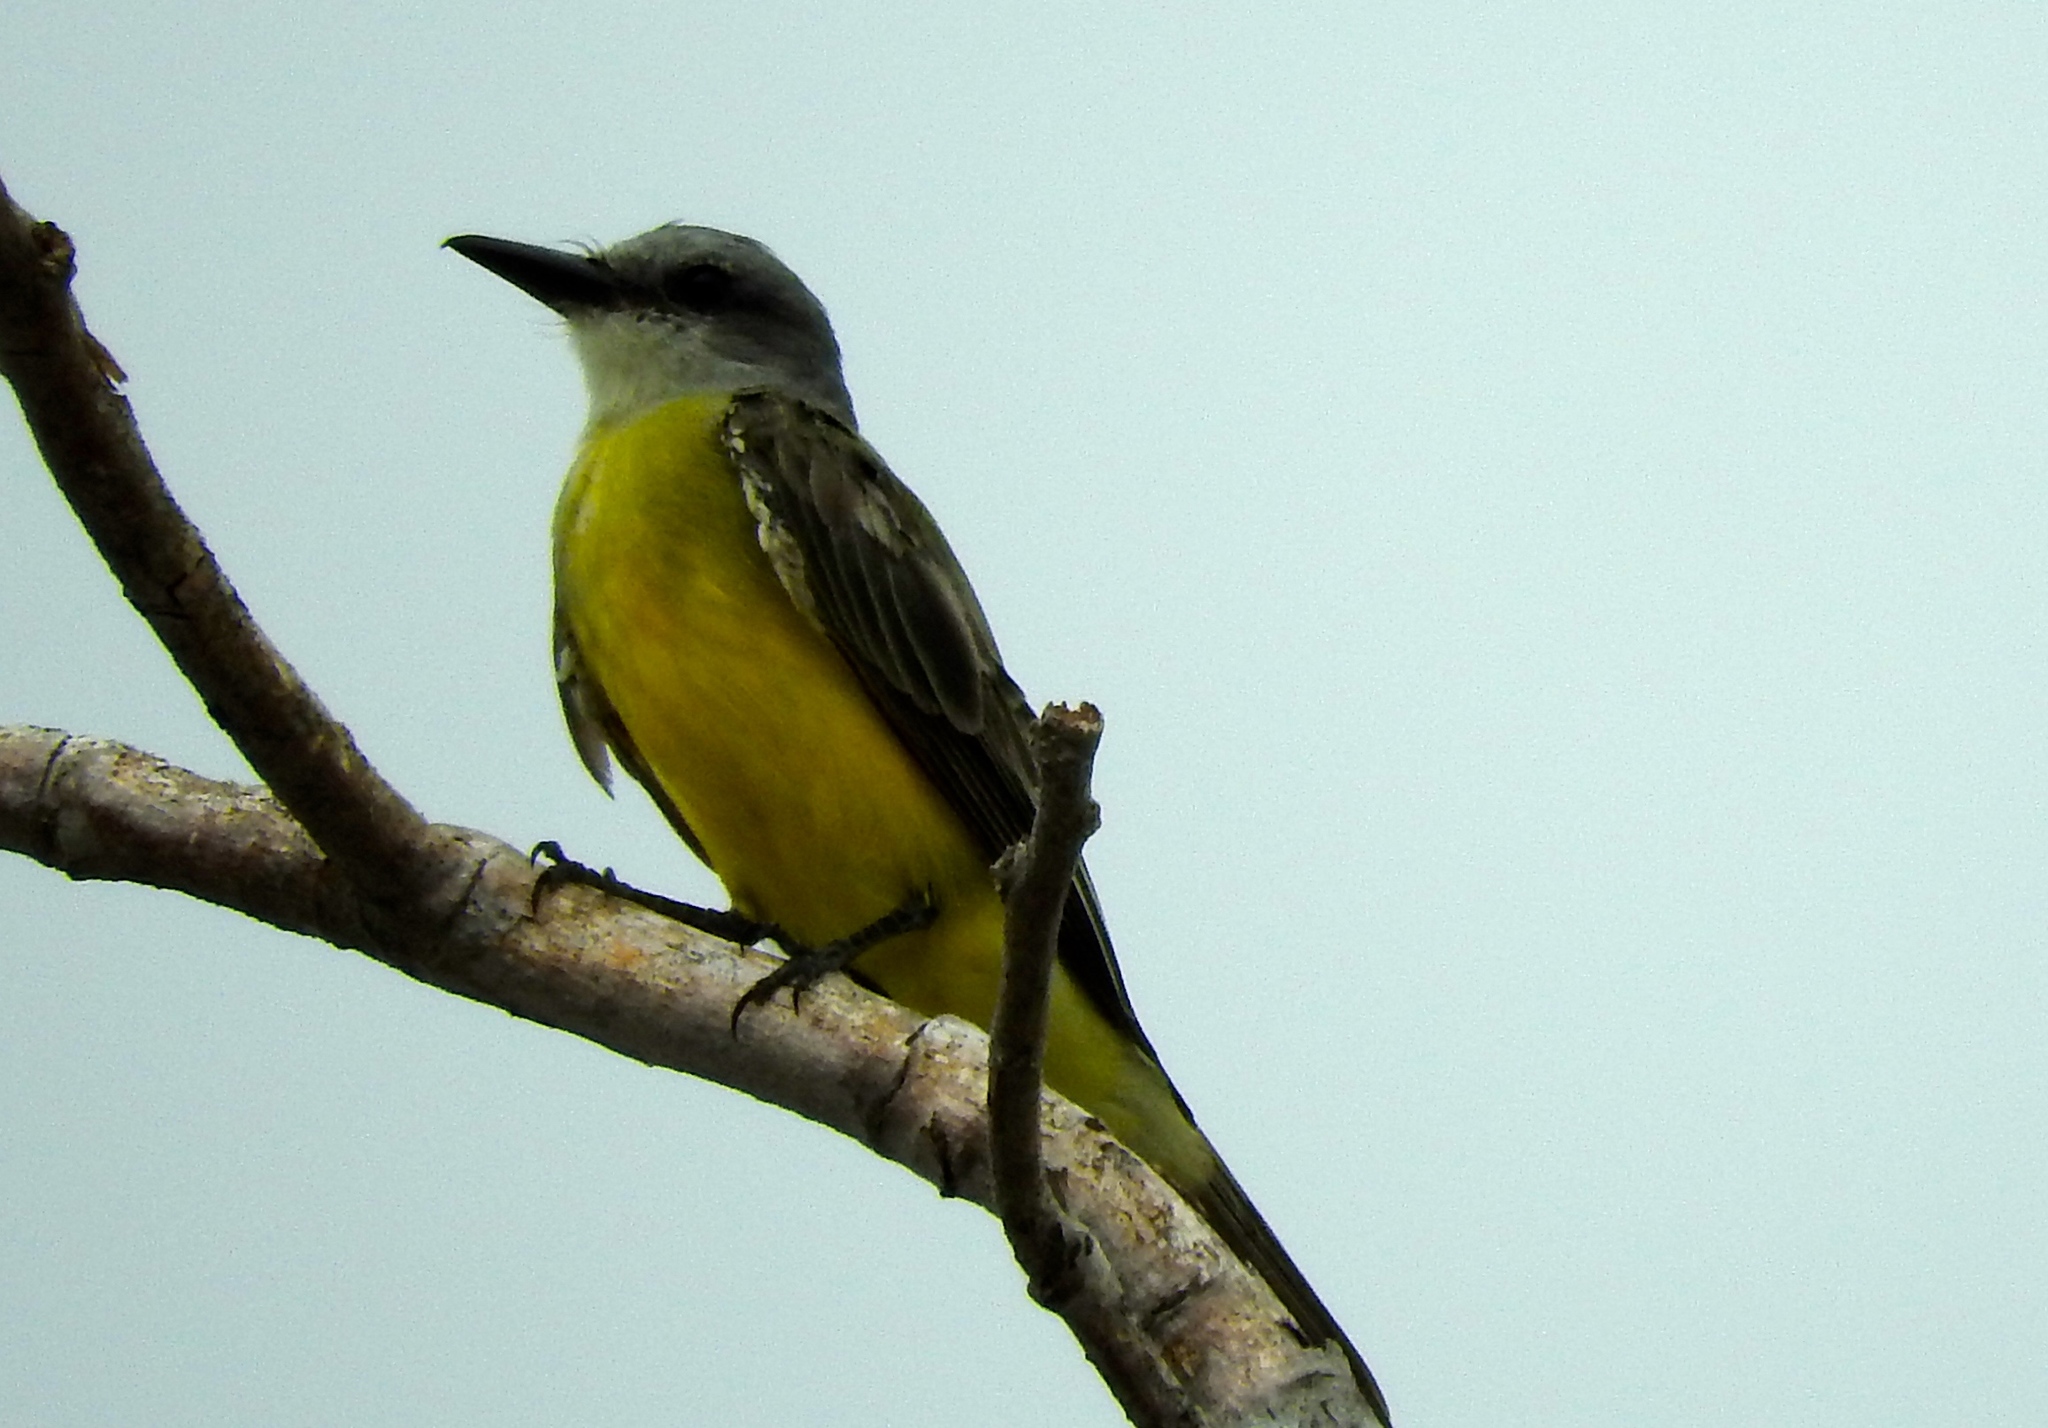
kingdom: Animalia
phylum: Chordata
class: Aves
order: Passeriformes
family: Tyrannidae
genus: Tyrannus
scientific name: Tyrannus melancholicus
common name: Tropical kingbird
